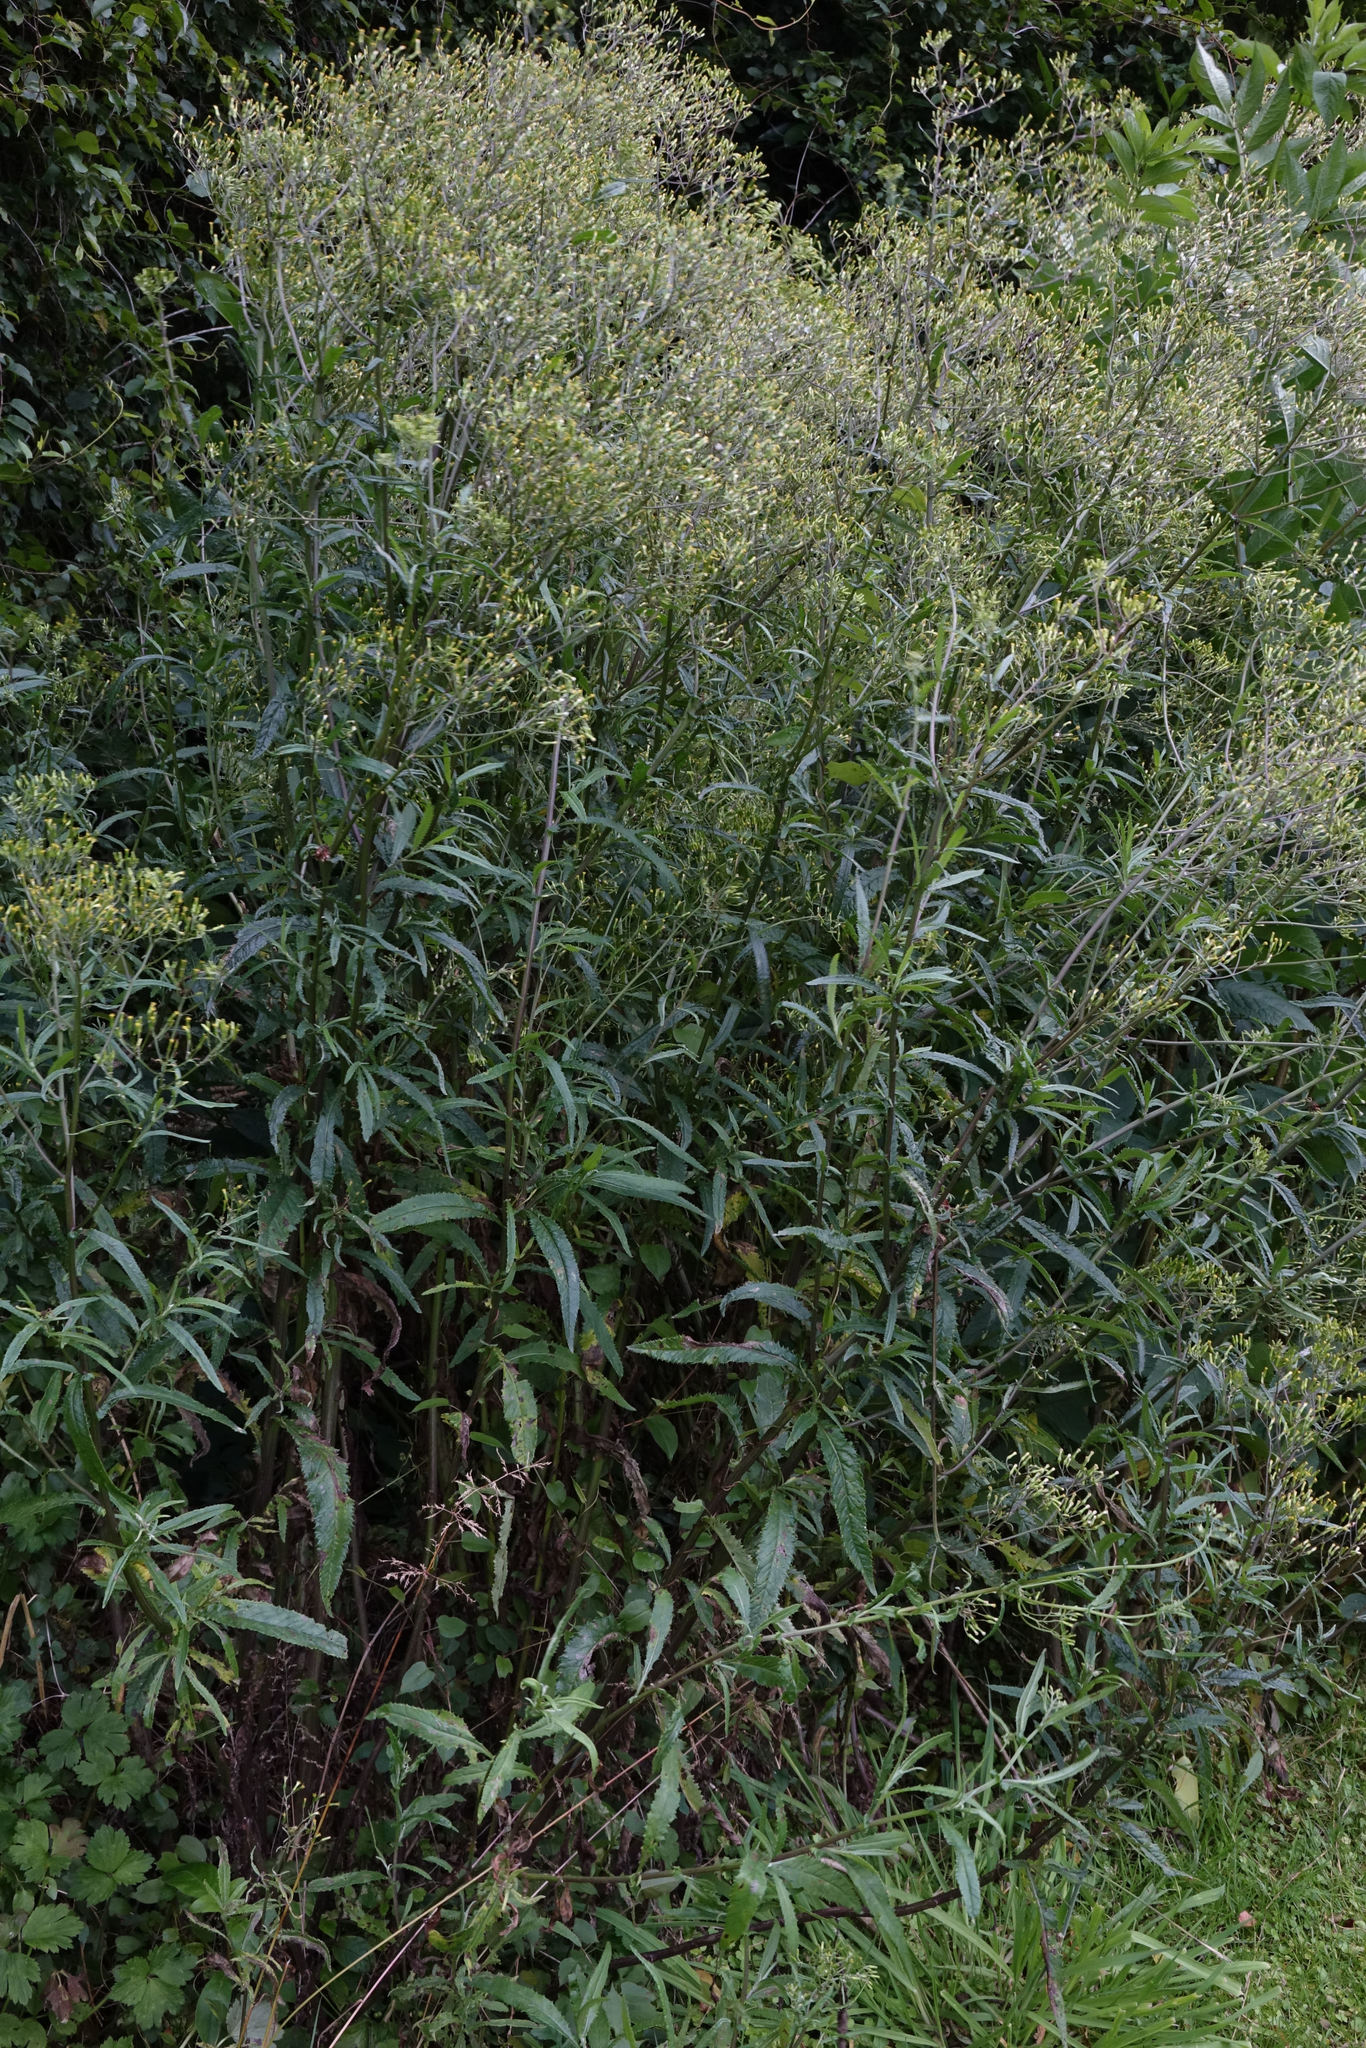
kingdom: Plantae
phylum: Tracheophyta
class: Magnoliopsida
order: Asterales
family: Asteraceae
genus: Senecio
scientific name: Senecio minimus
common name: Toothed fireweed
